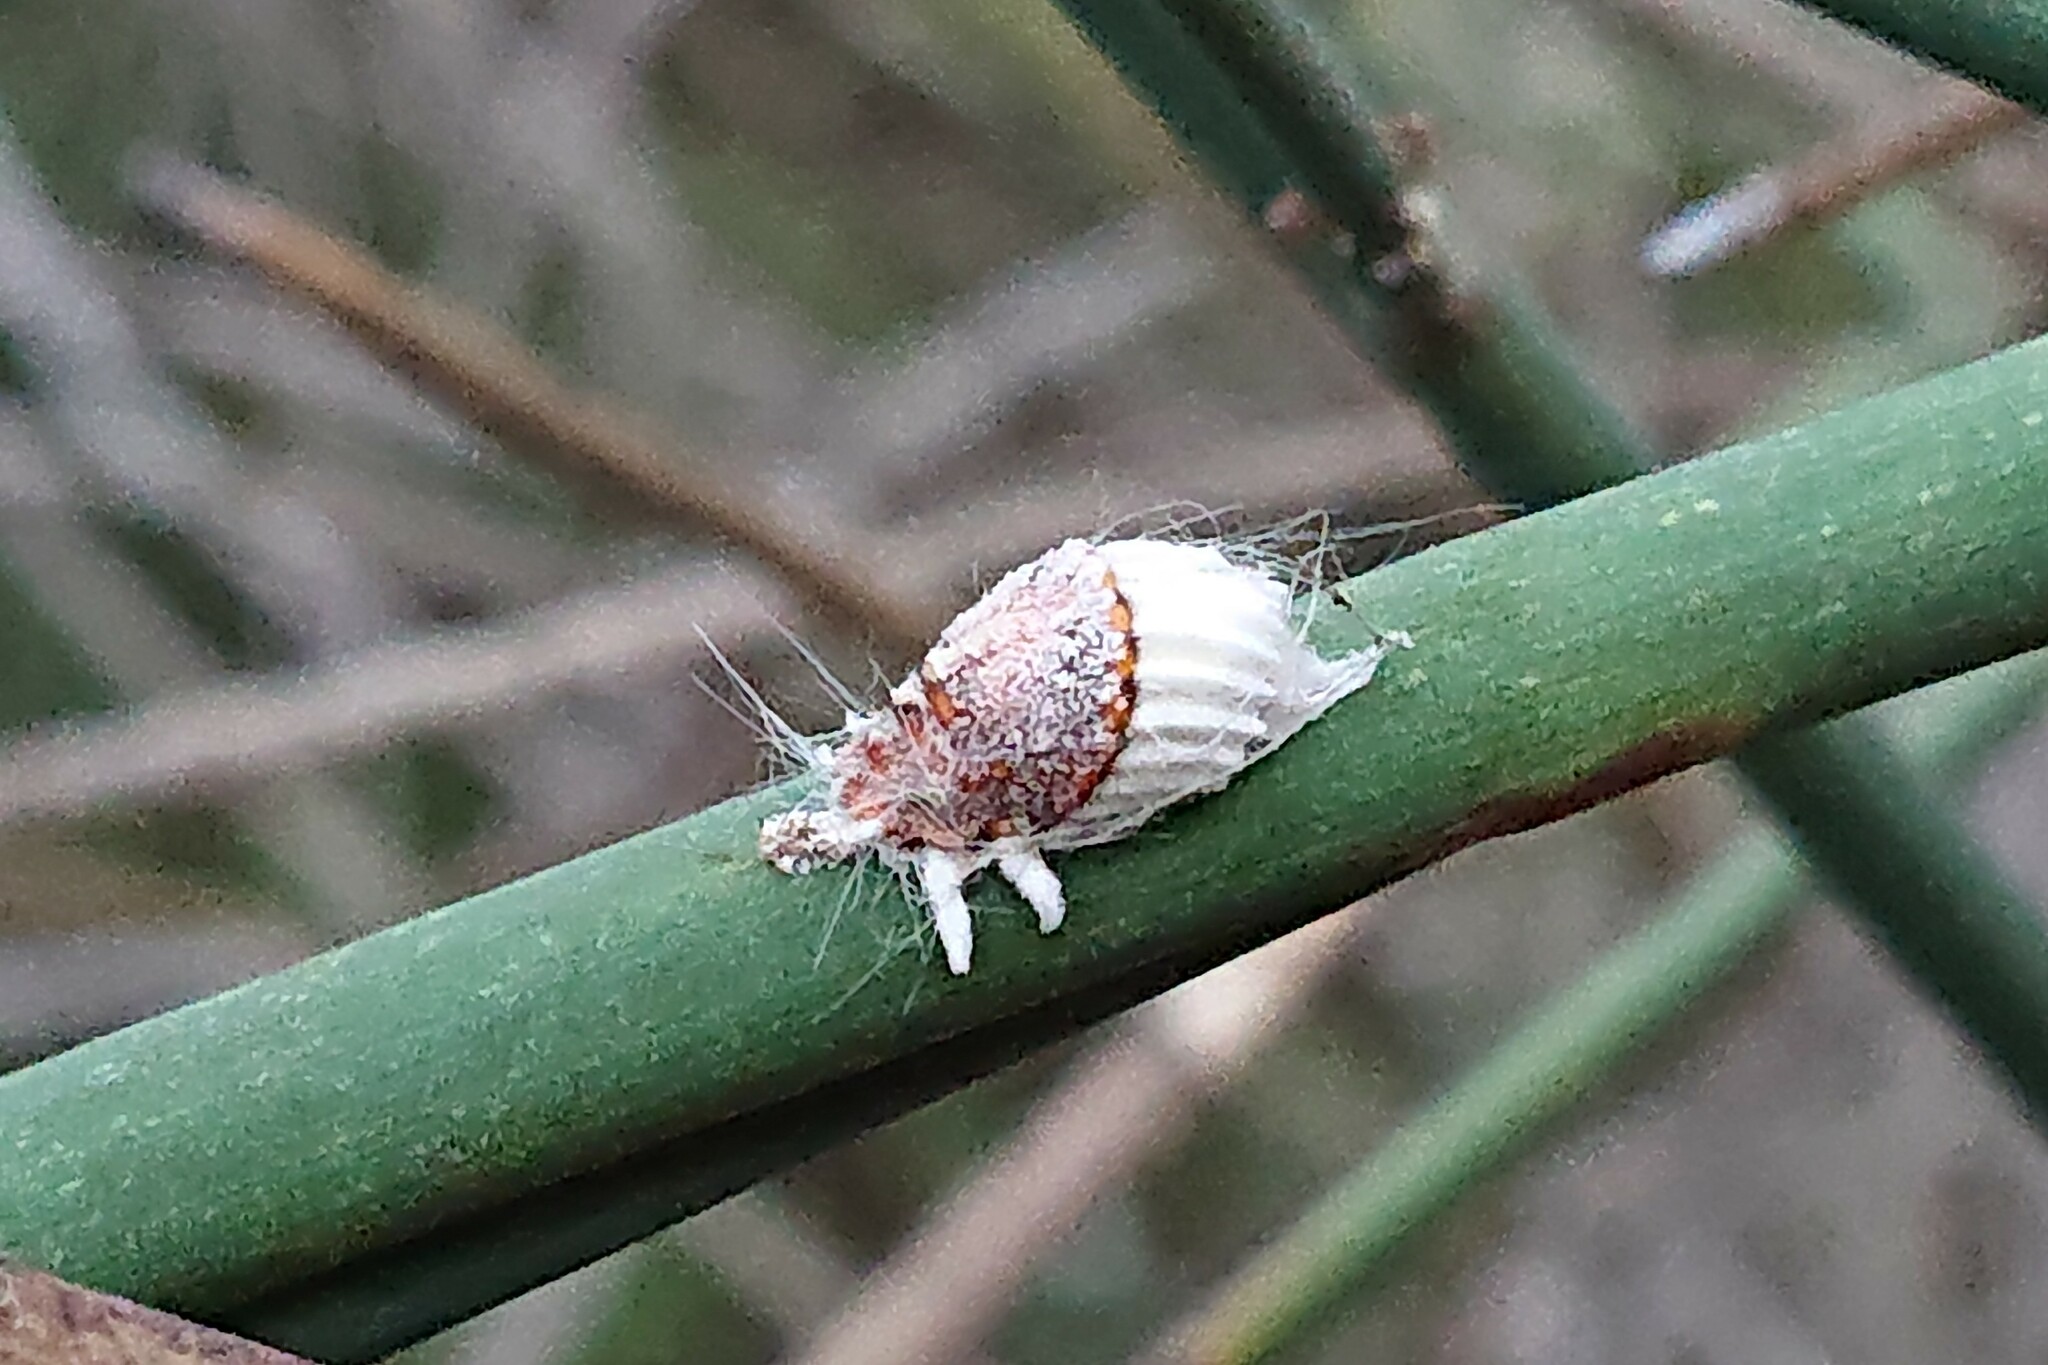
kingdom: Animalia
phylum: Arthropoda
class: Insecta
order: Hemiptera
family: Margarodidae
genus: Icerya
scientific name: Icerya purchasi
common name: Cottony cushion scale
